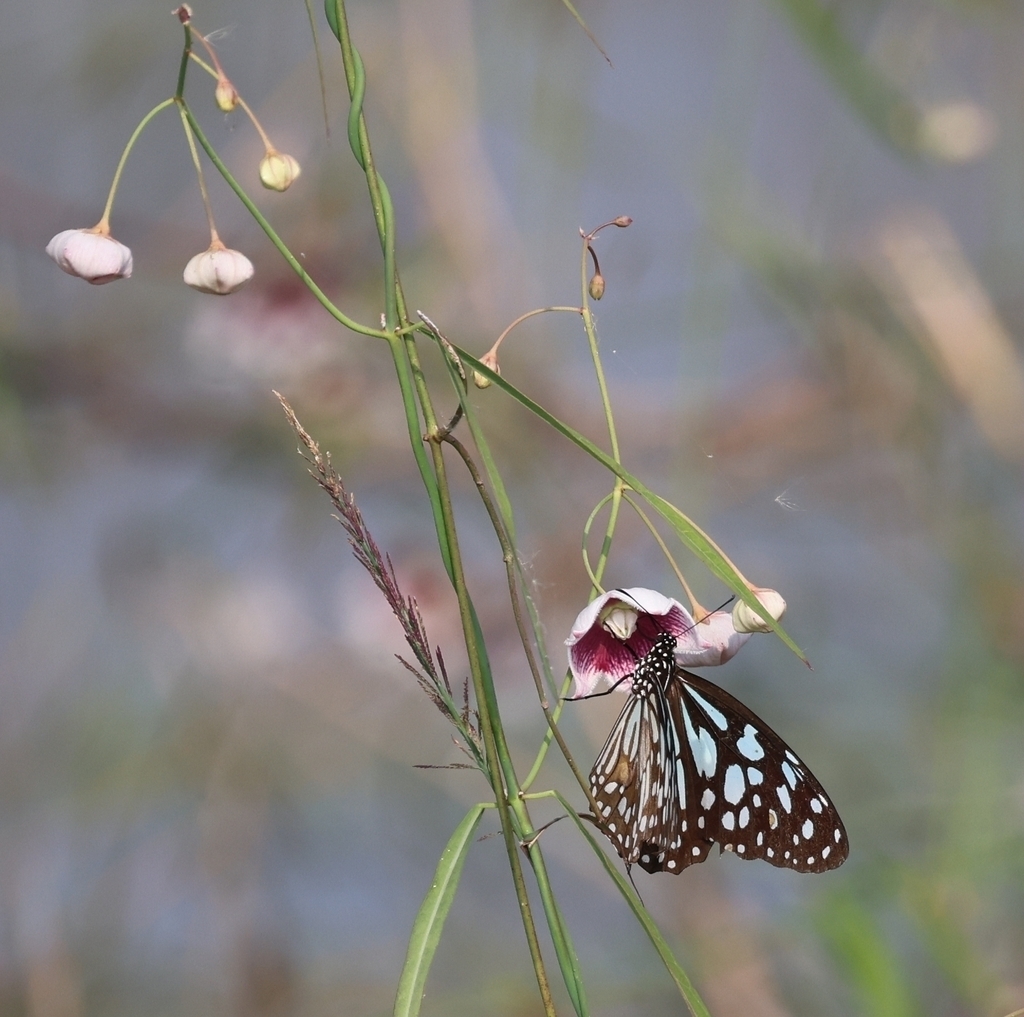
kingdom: Plantae
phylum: Tracheophyta
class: Magnoliopsida
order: Gentianales
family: Apocynaceae
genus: Oxystelma
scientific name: Oxystelma wallichii
